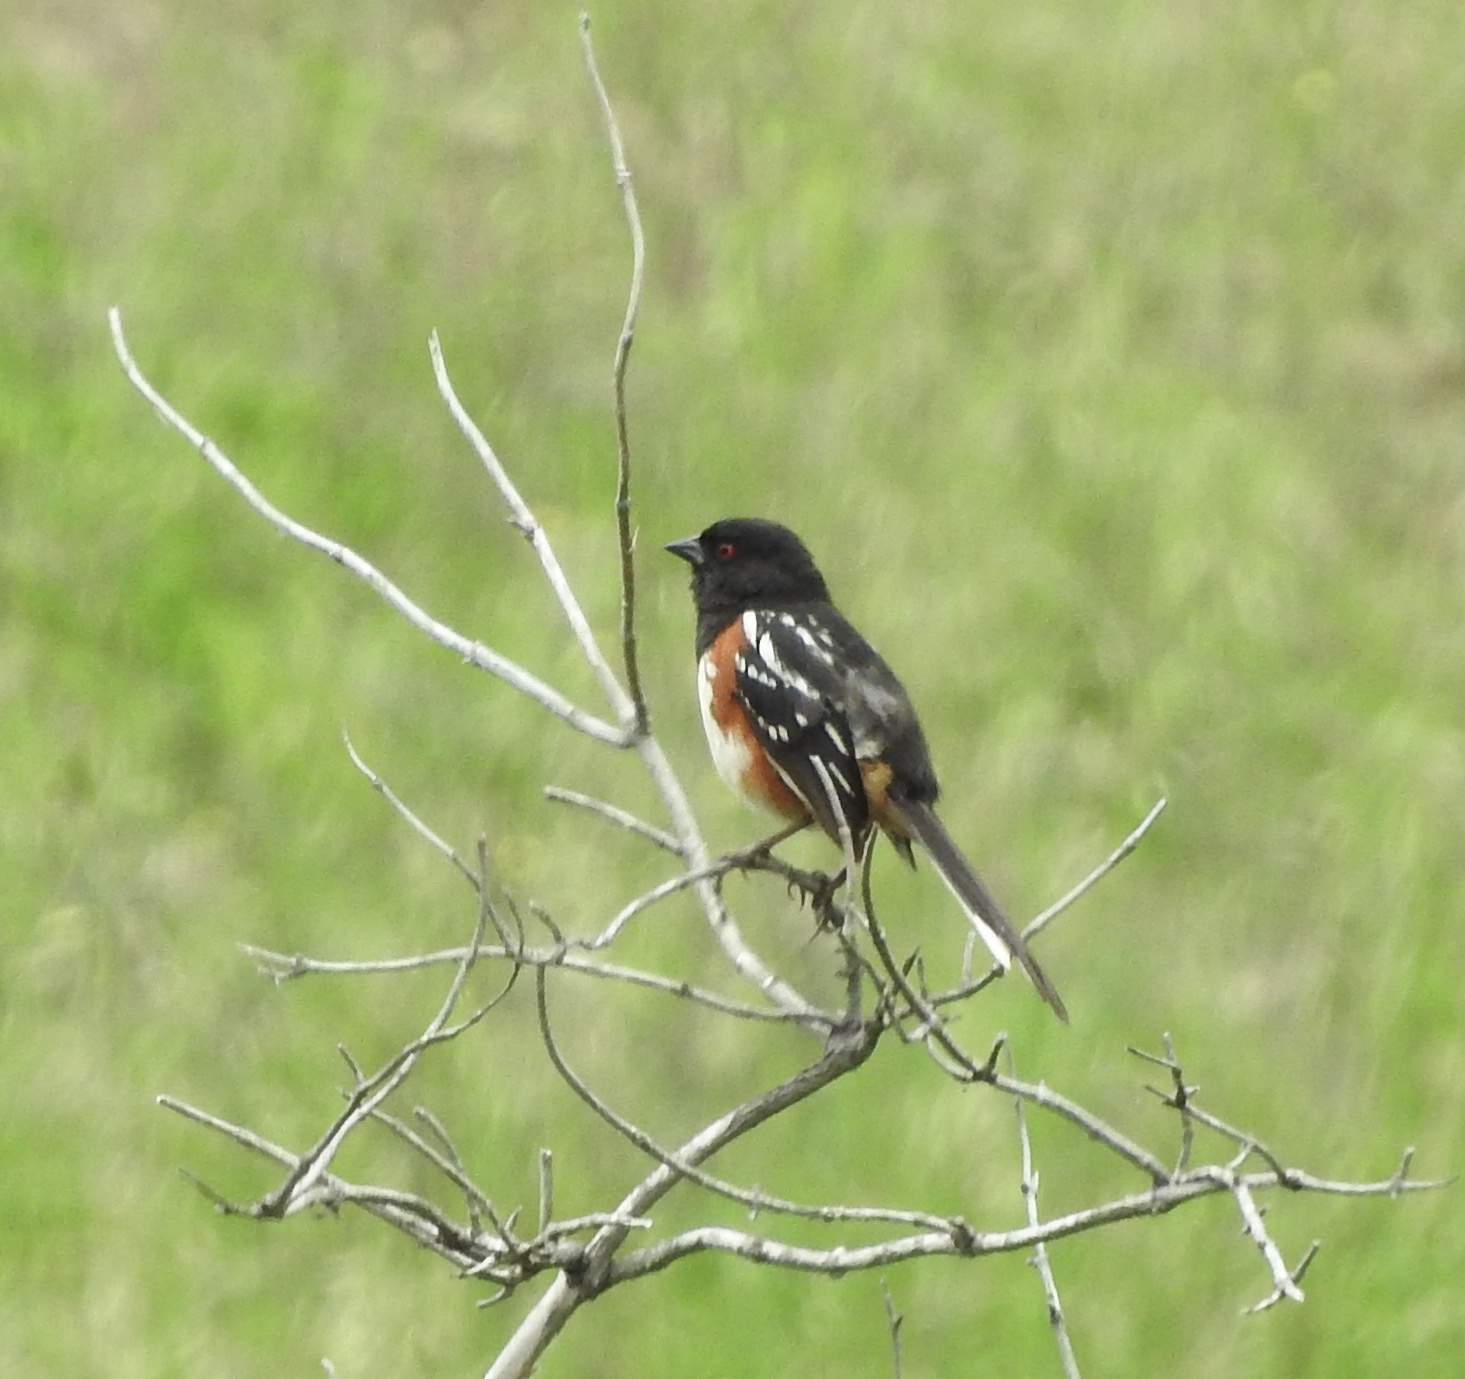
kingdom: Animalia
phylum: Chordata
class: Aves
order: Passeriformes
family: Passerellidae
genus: Pipilo
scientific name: Pipilo maculatus
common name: Spotted towhee
